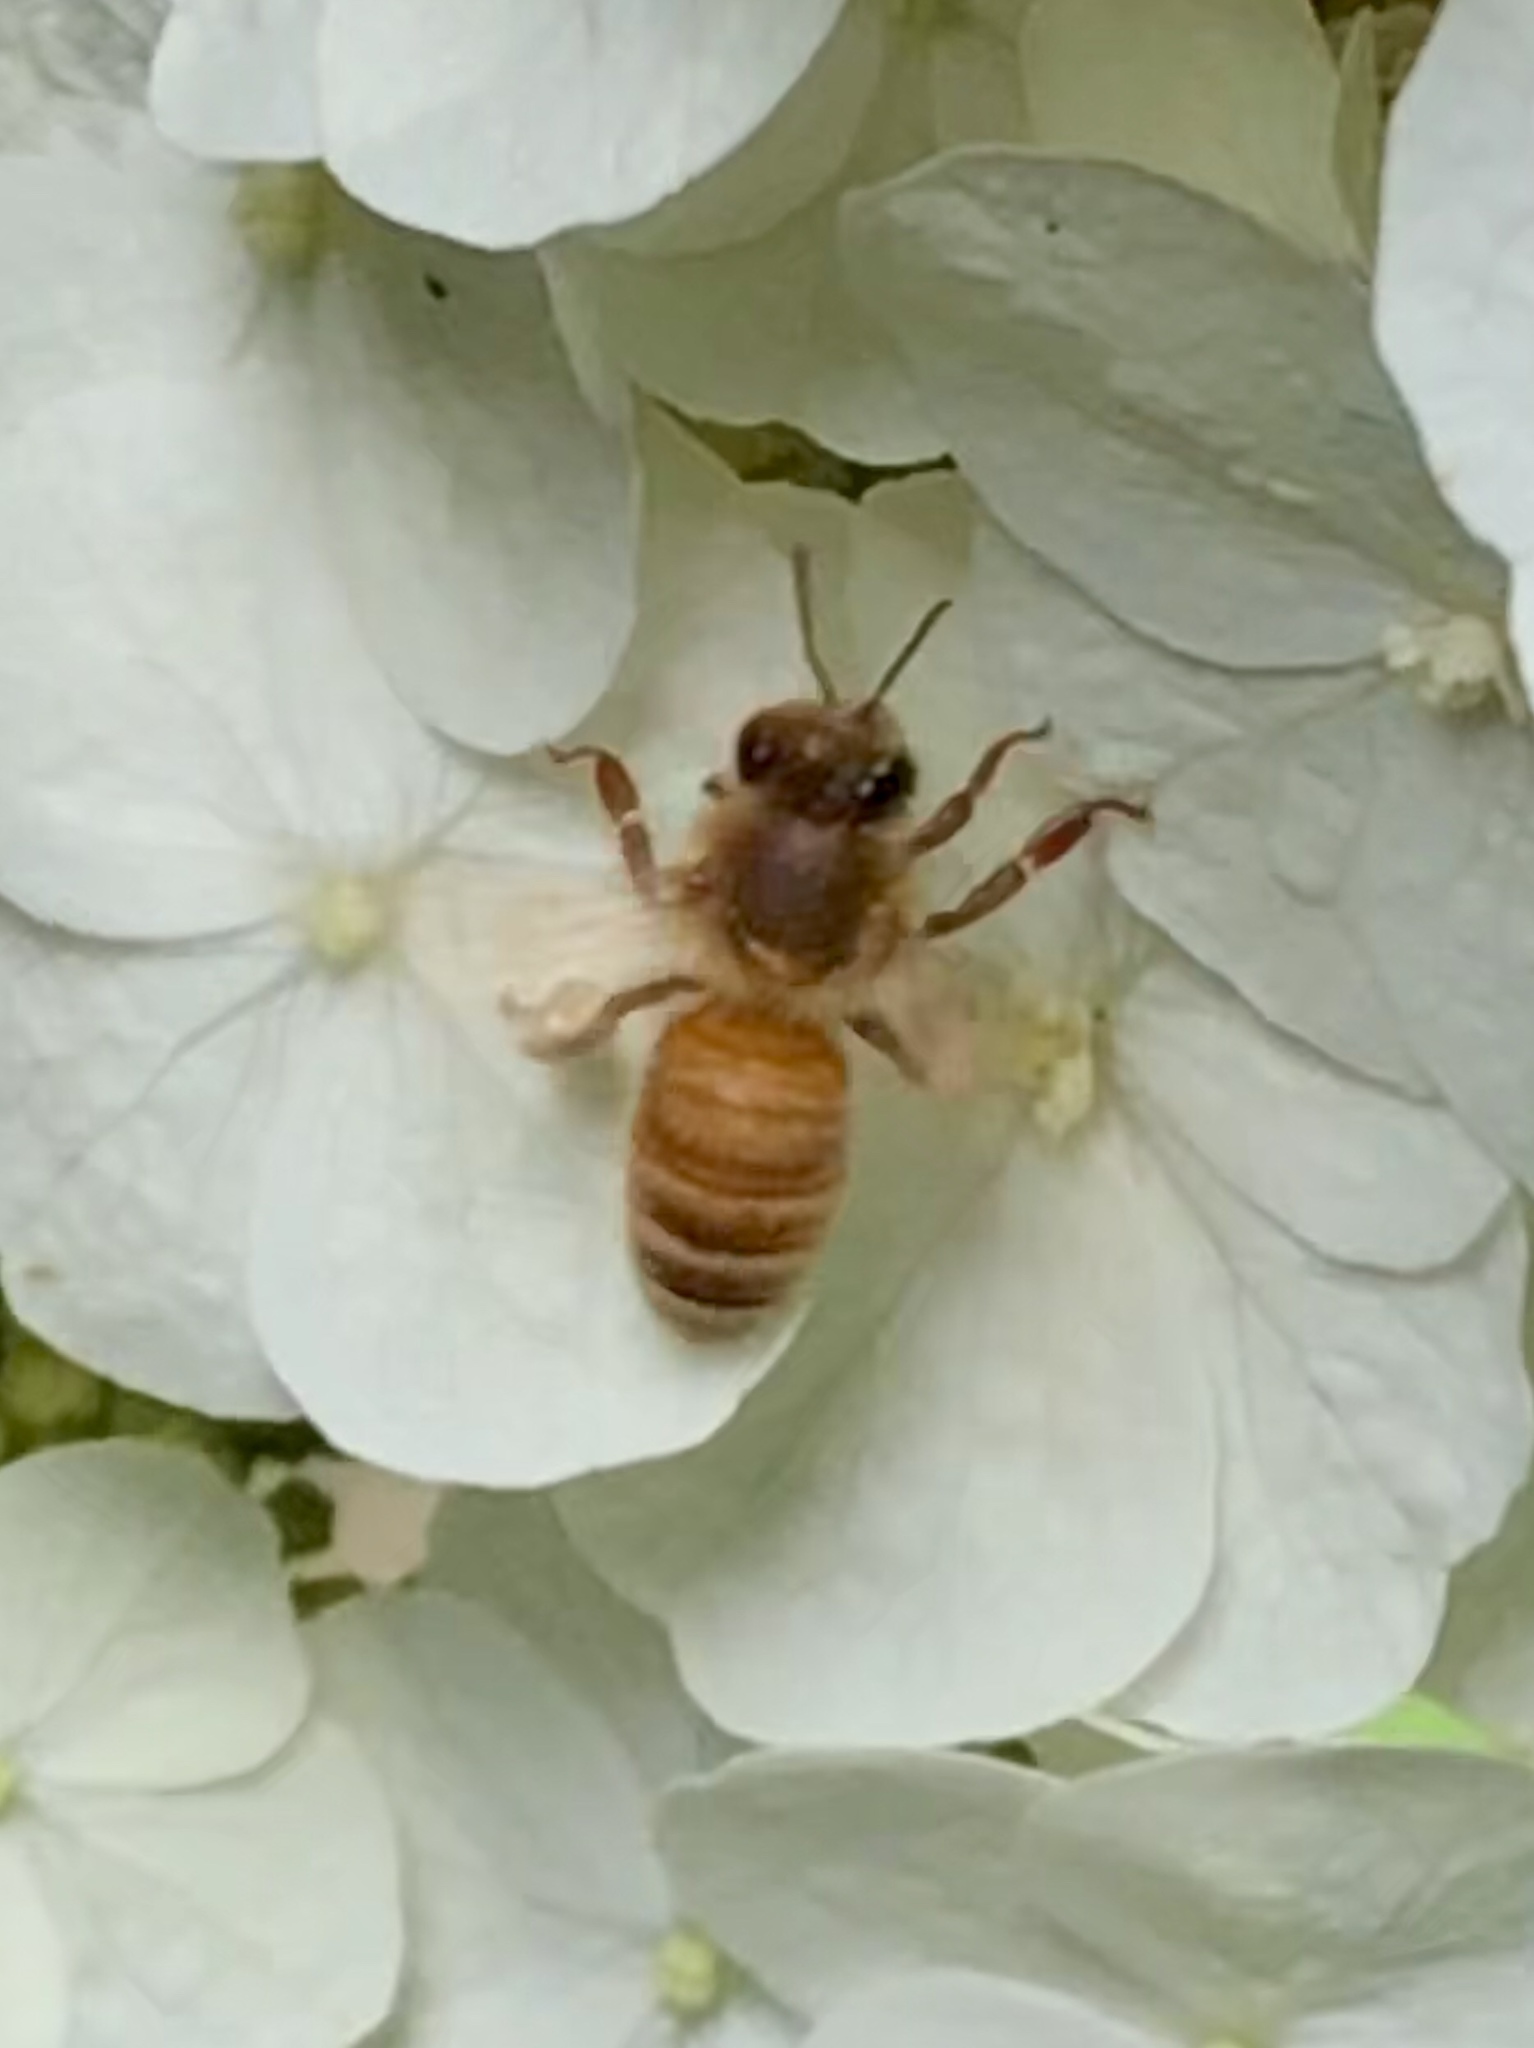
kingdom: Animalia
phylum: Arthropoda
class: Insecta
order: Hymenoptera
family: Apidae
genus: Apis
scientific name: Apis mellifera
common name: Honey bee
